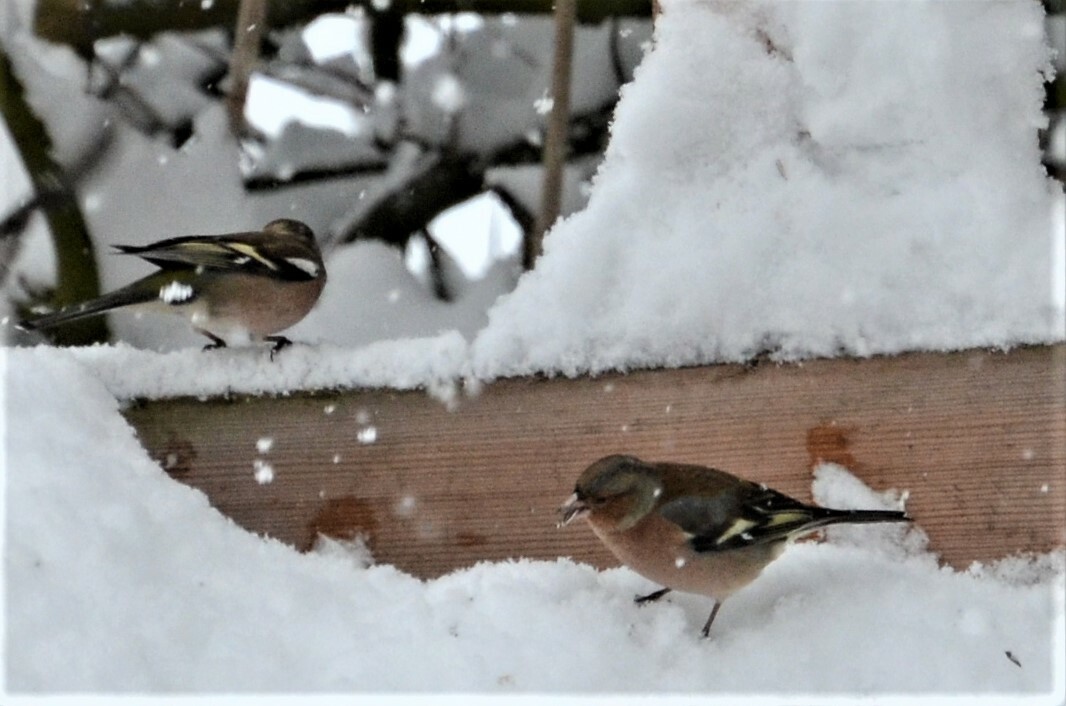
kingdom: Animalia
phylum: Chordata
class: Aves
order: Passeriformes
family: Fringillidae
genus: Fringilla
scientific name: Fringilla coelebs
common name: Common chaffinch
